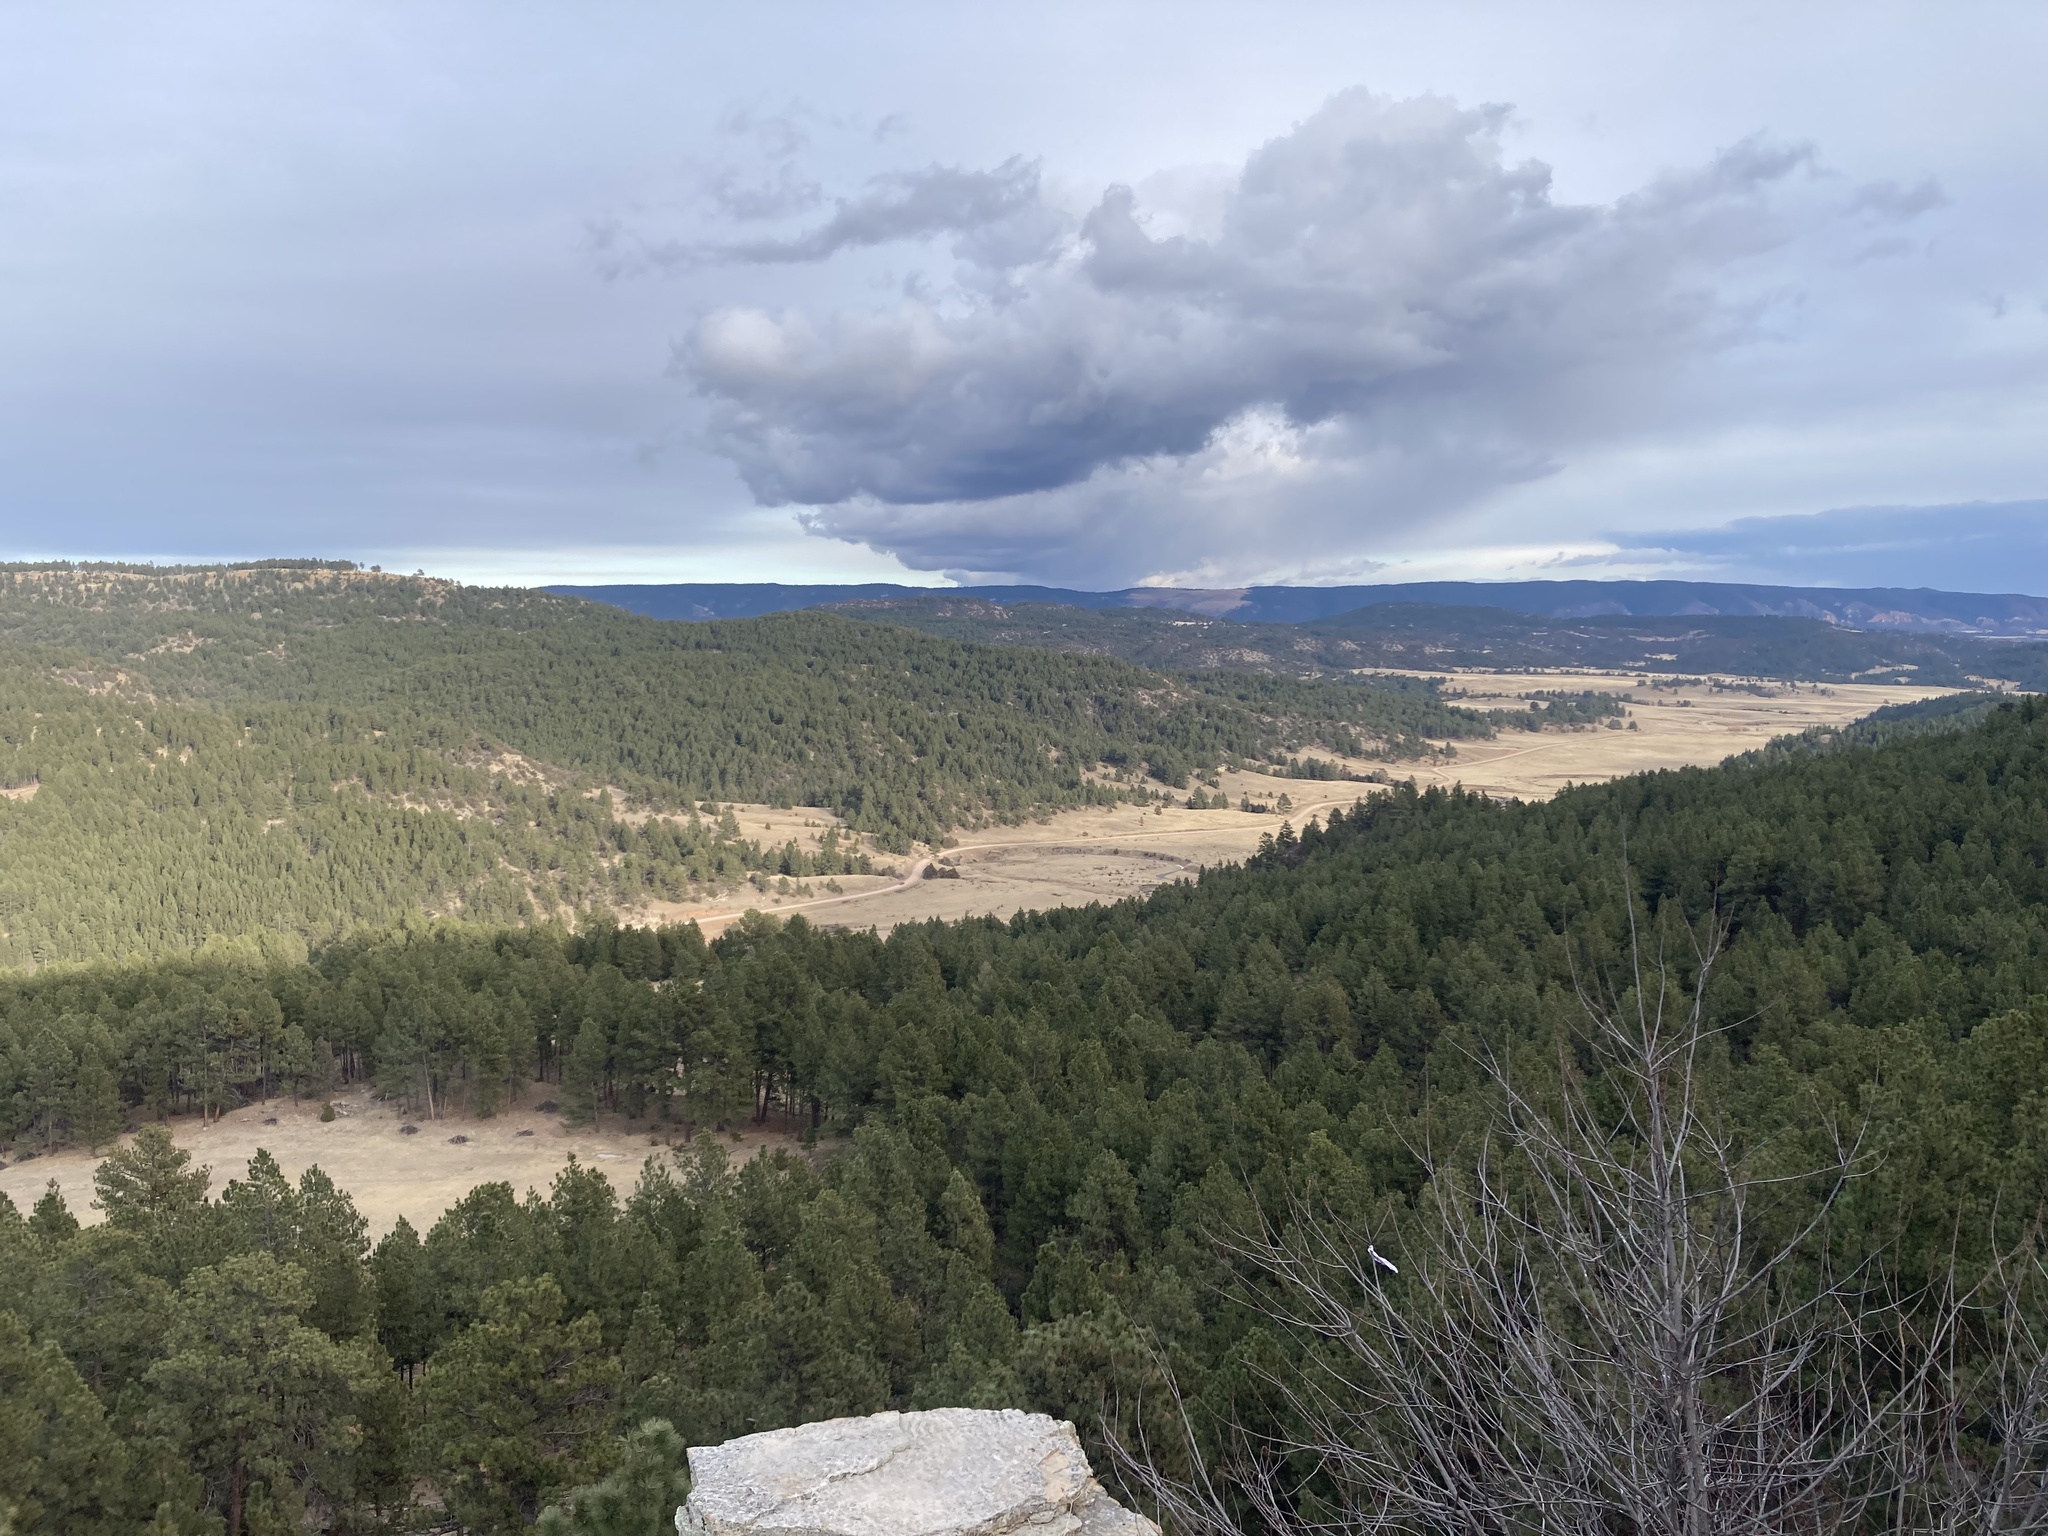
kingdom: Plantae
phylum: Tracheophyta
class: Pinopsida
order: Pinales
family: Pinaceae
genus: Pinus
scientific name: Pinus ponderosa
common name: Western yellow-pine
